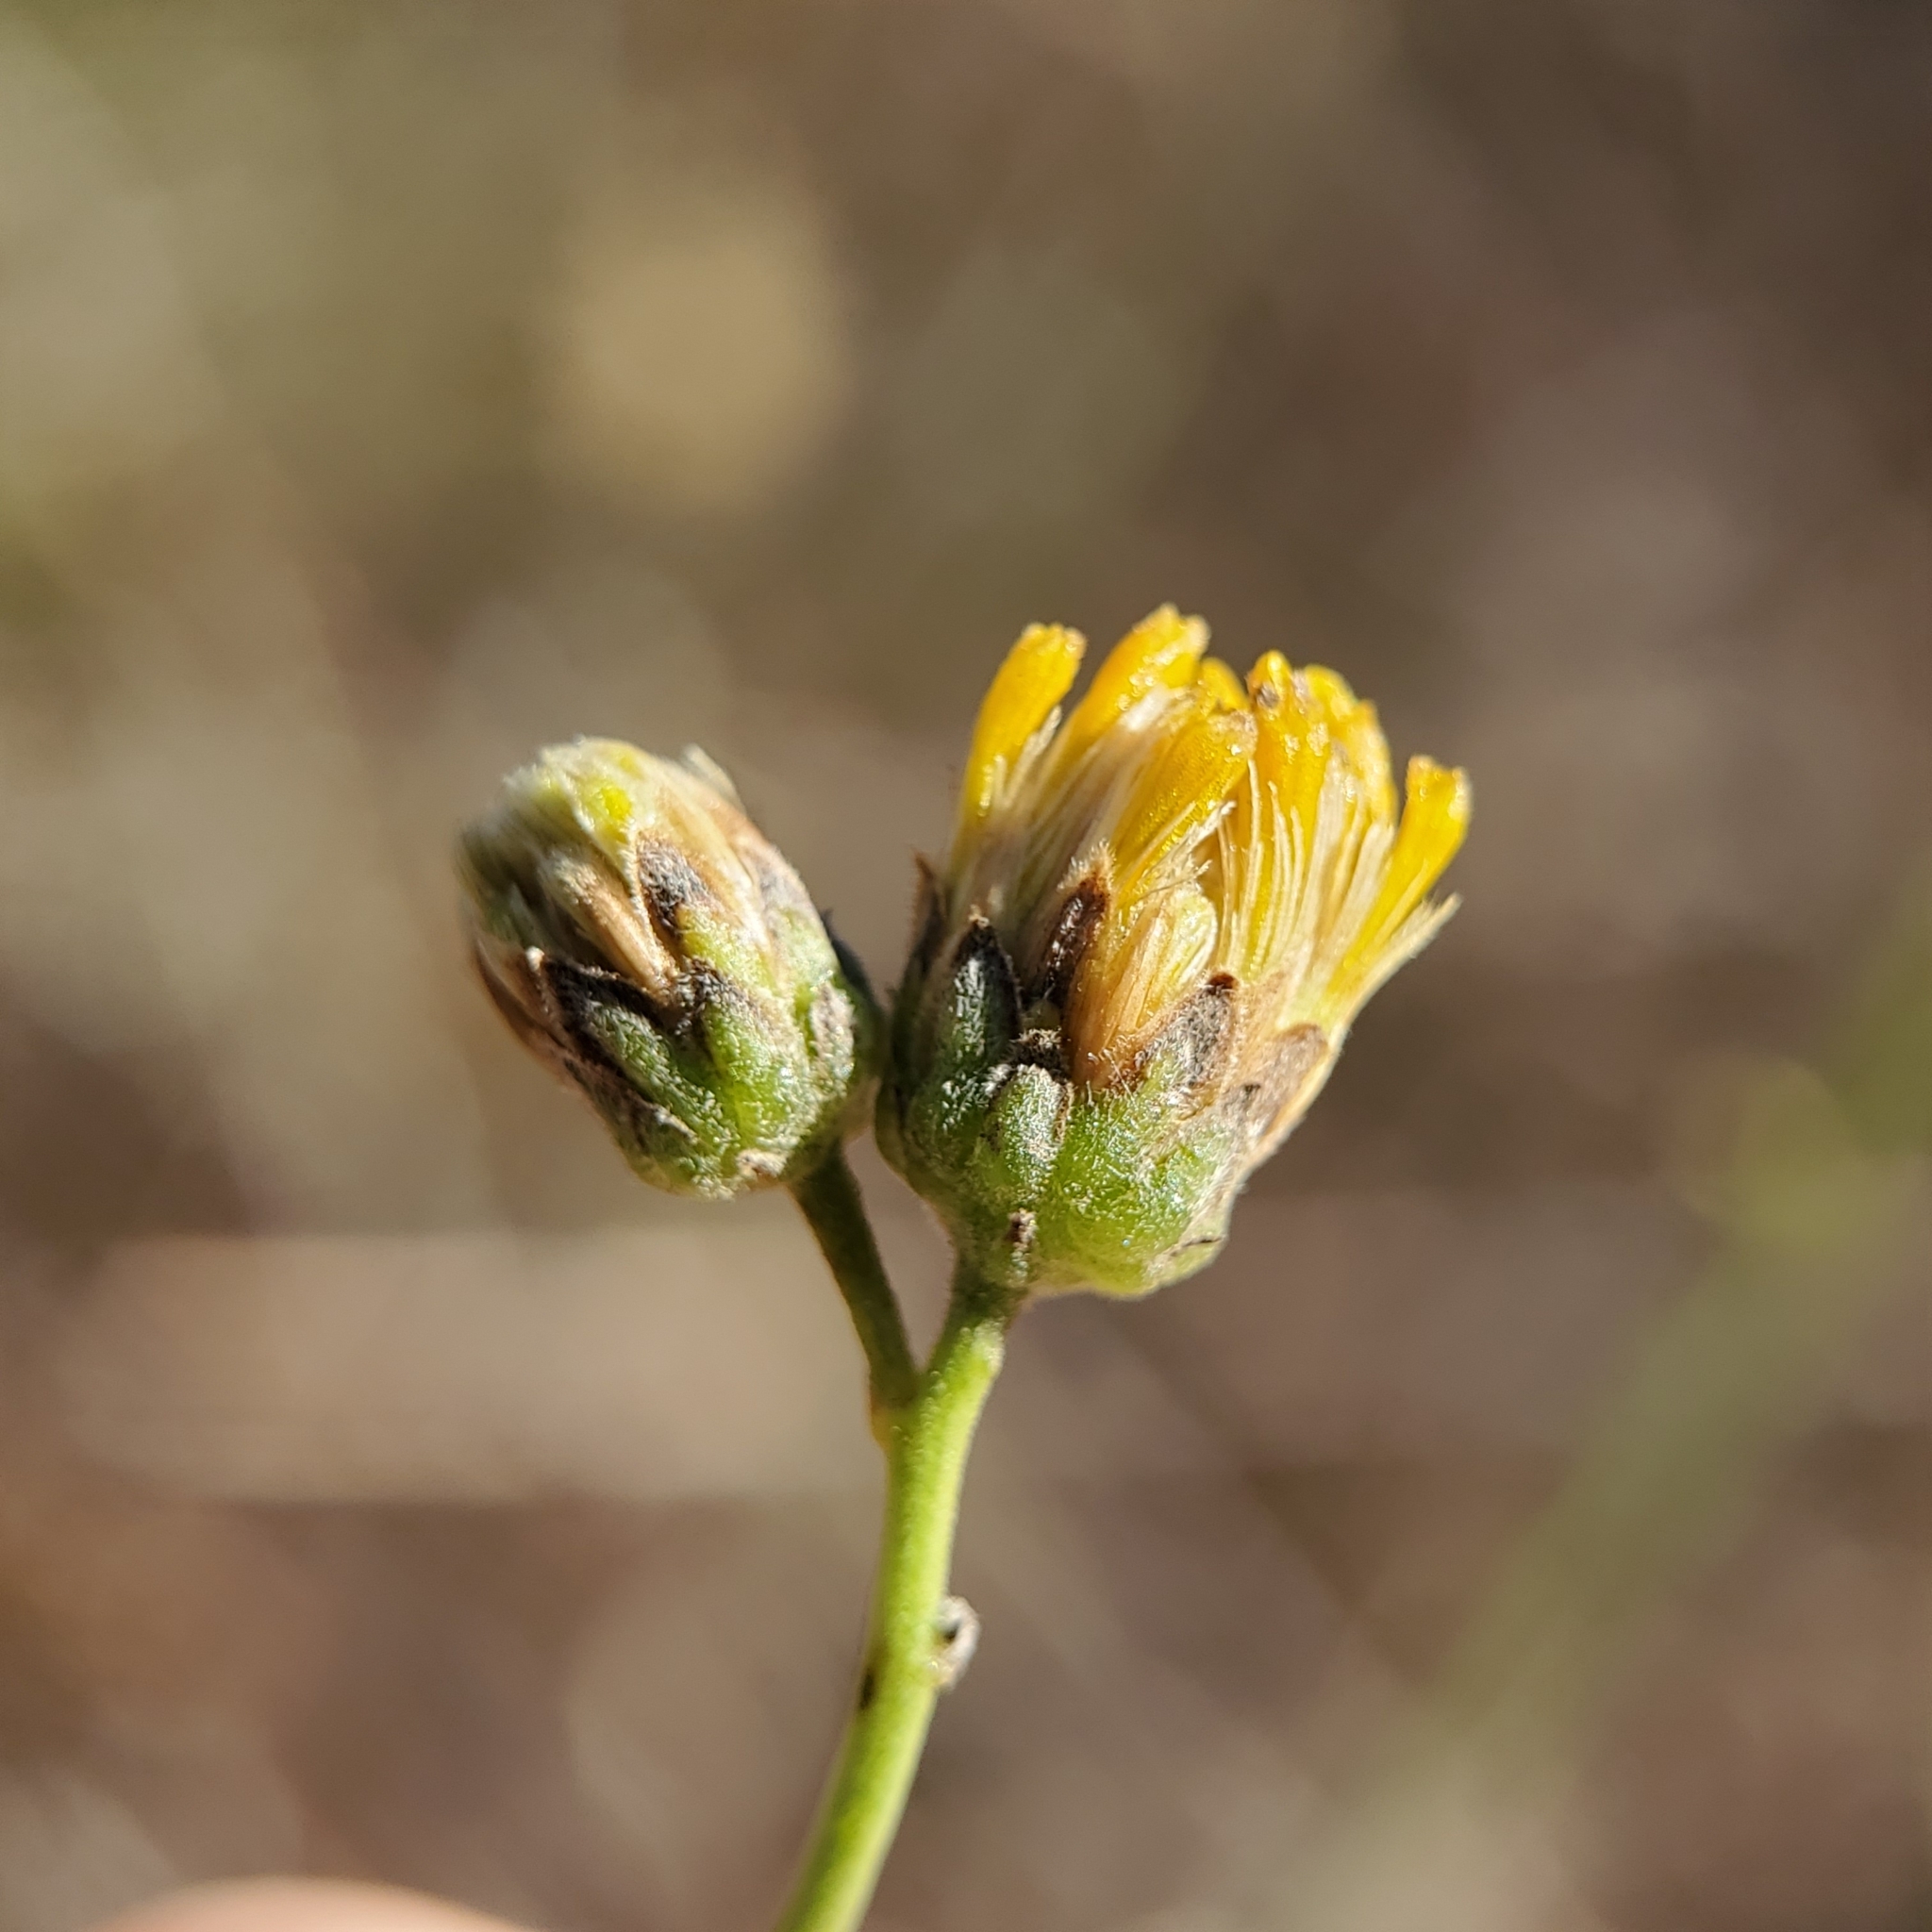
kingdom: Plantae
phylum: Tracheophyta
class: Magnoliopsida
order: Asterales
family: Asteraceae
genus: Bebbia
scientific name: Bebbia juncea
